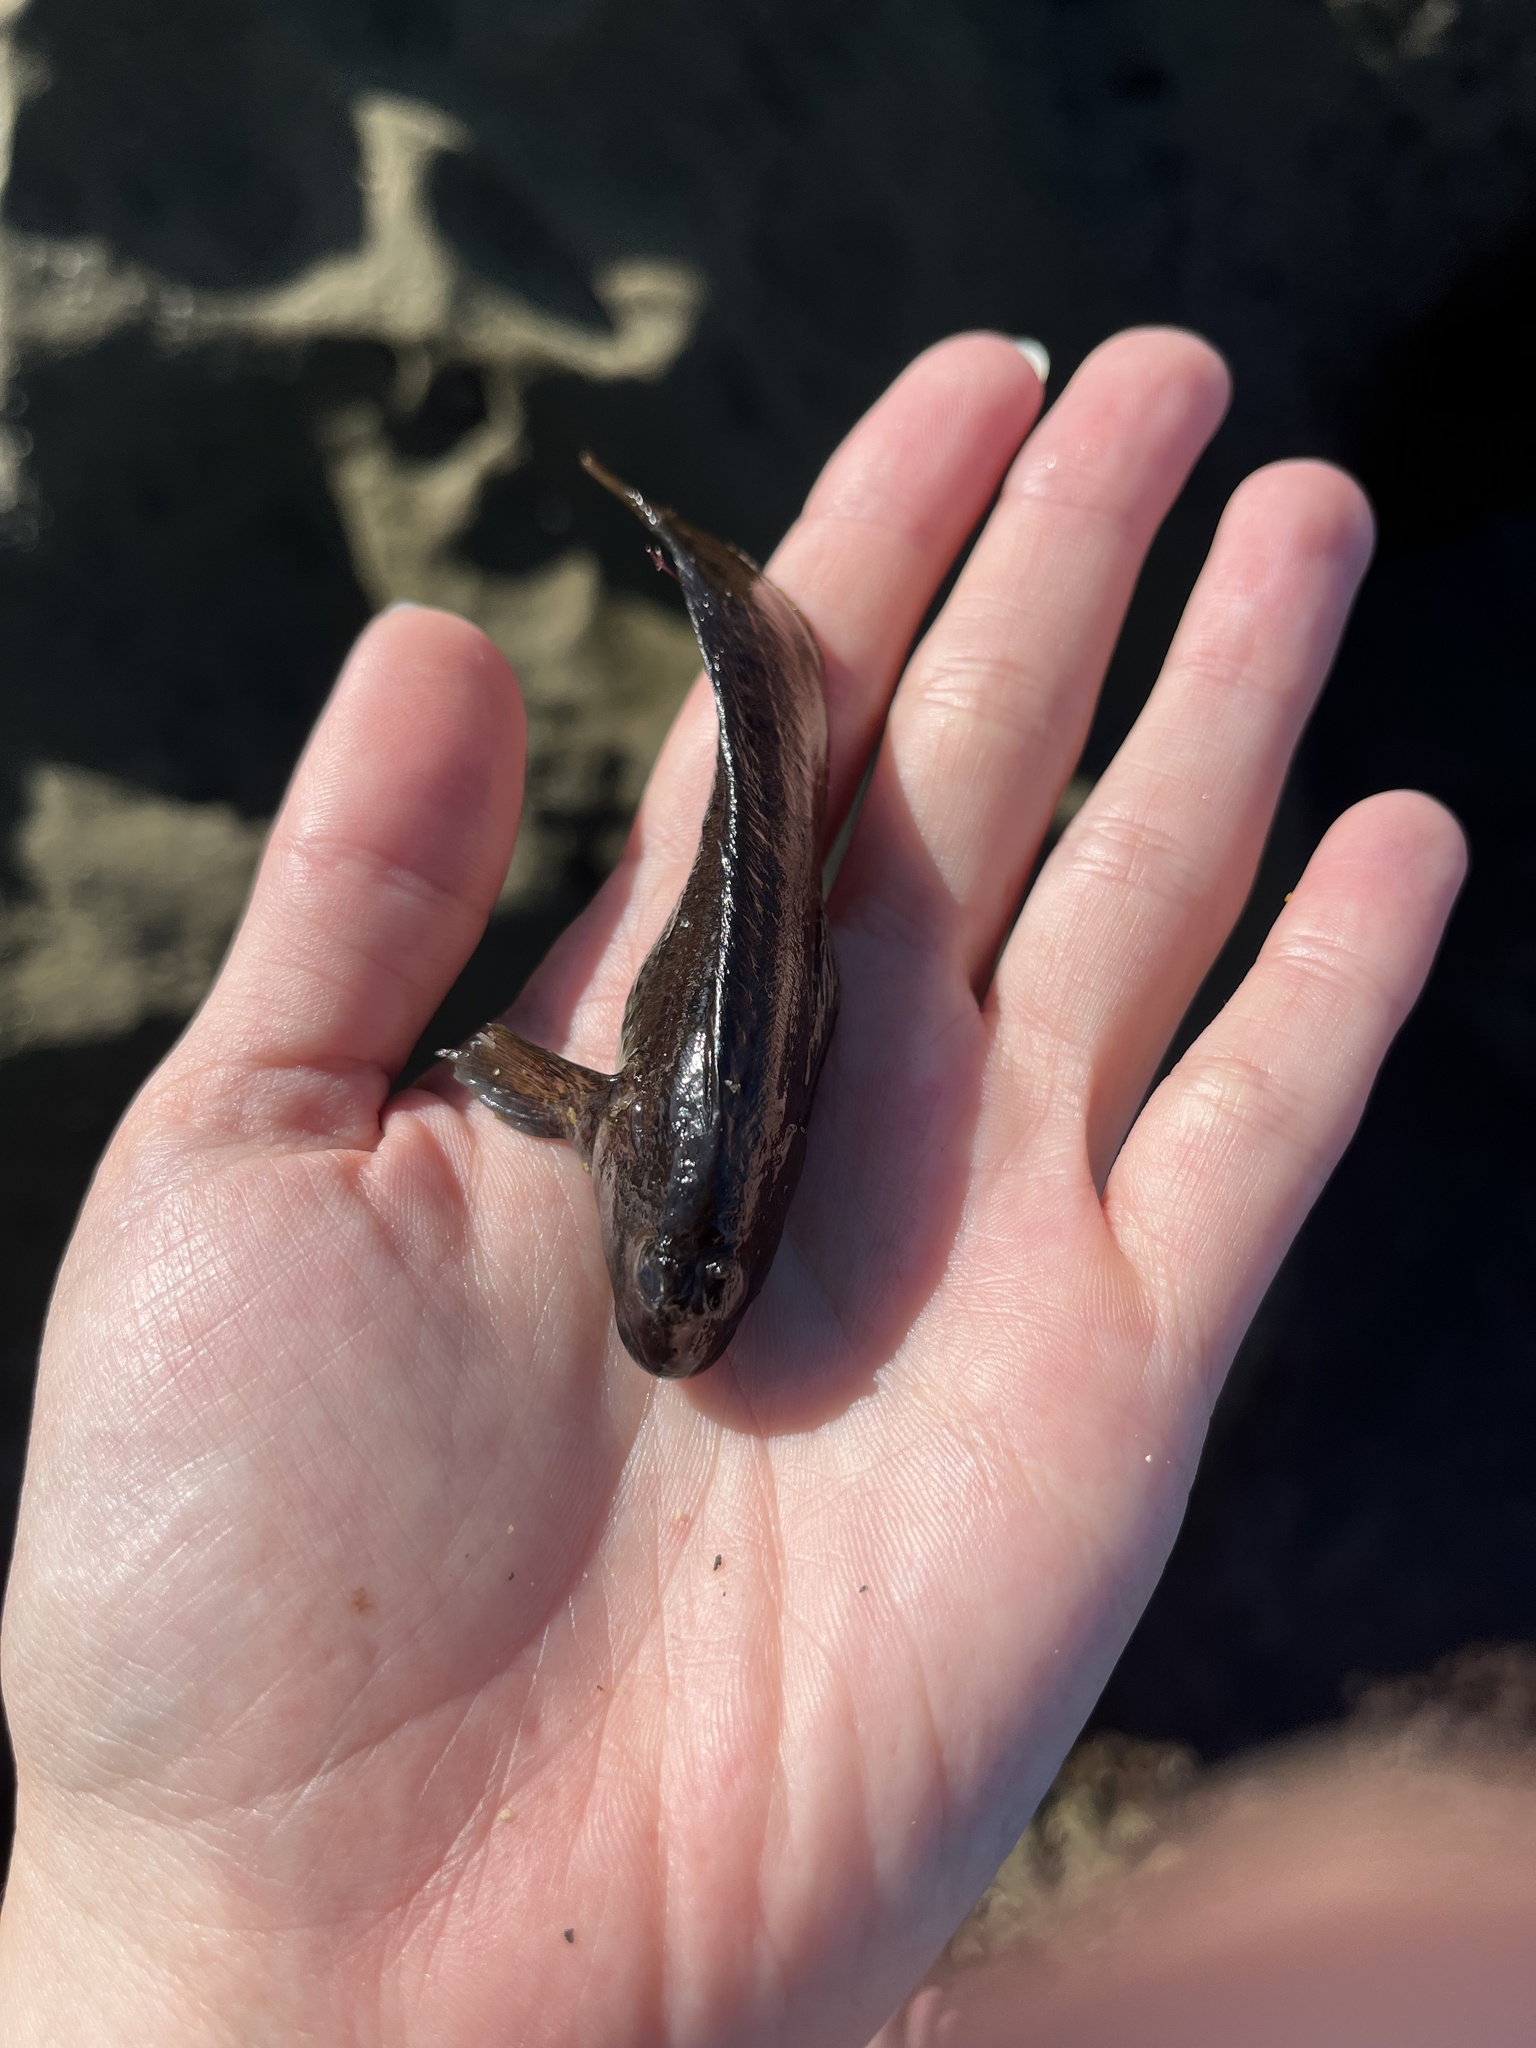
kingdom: Animalia
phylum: Chordata
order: Perciformes
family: Blenniidae
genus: Hypsoblennius
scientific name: Hypsoblennius gilberti
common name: Notchbrow blenny
